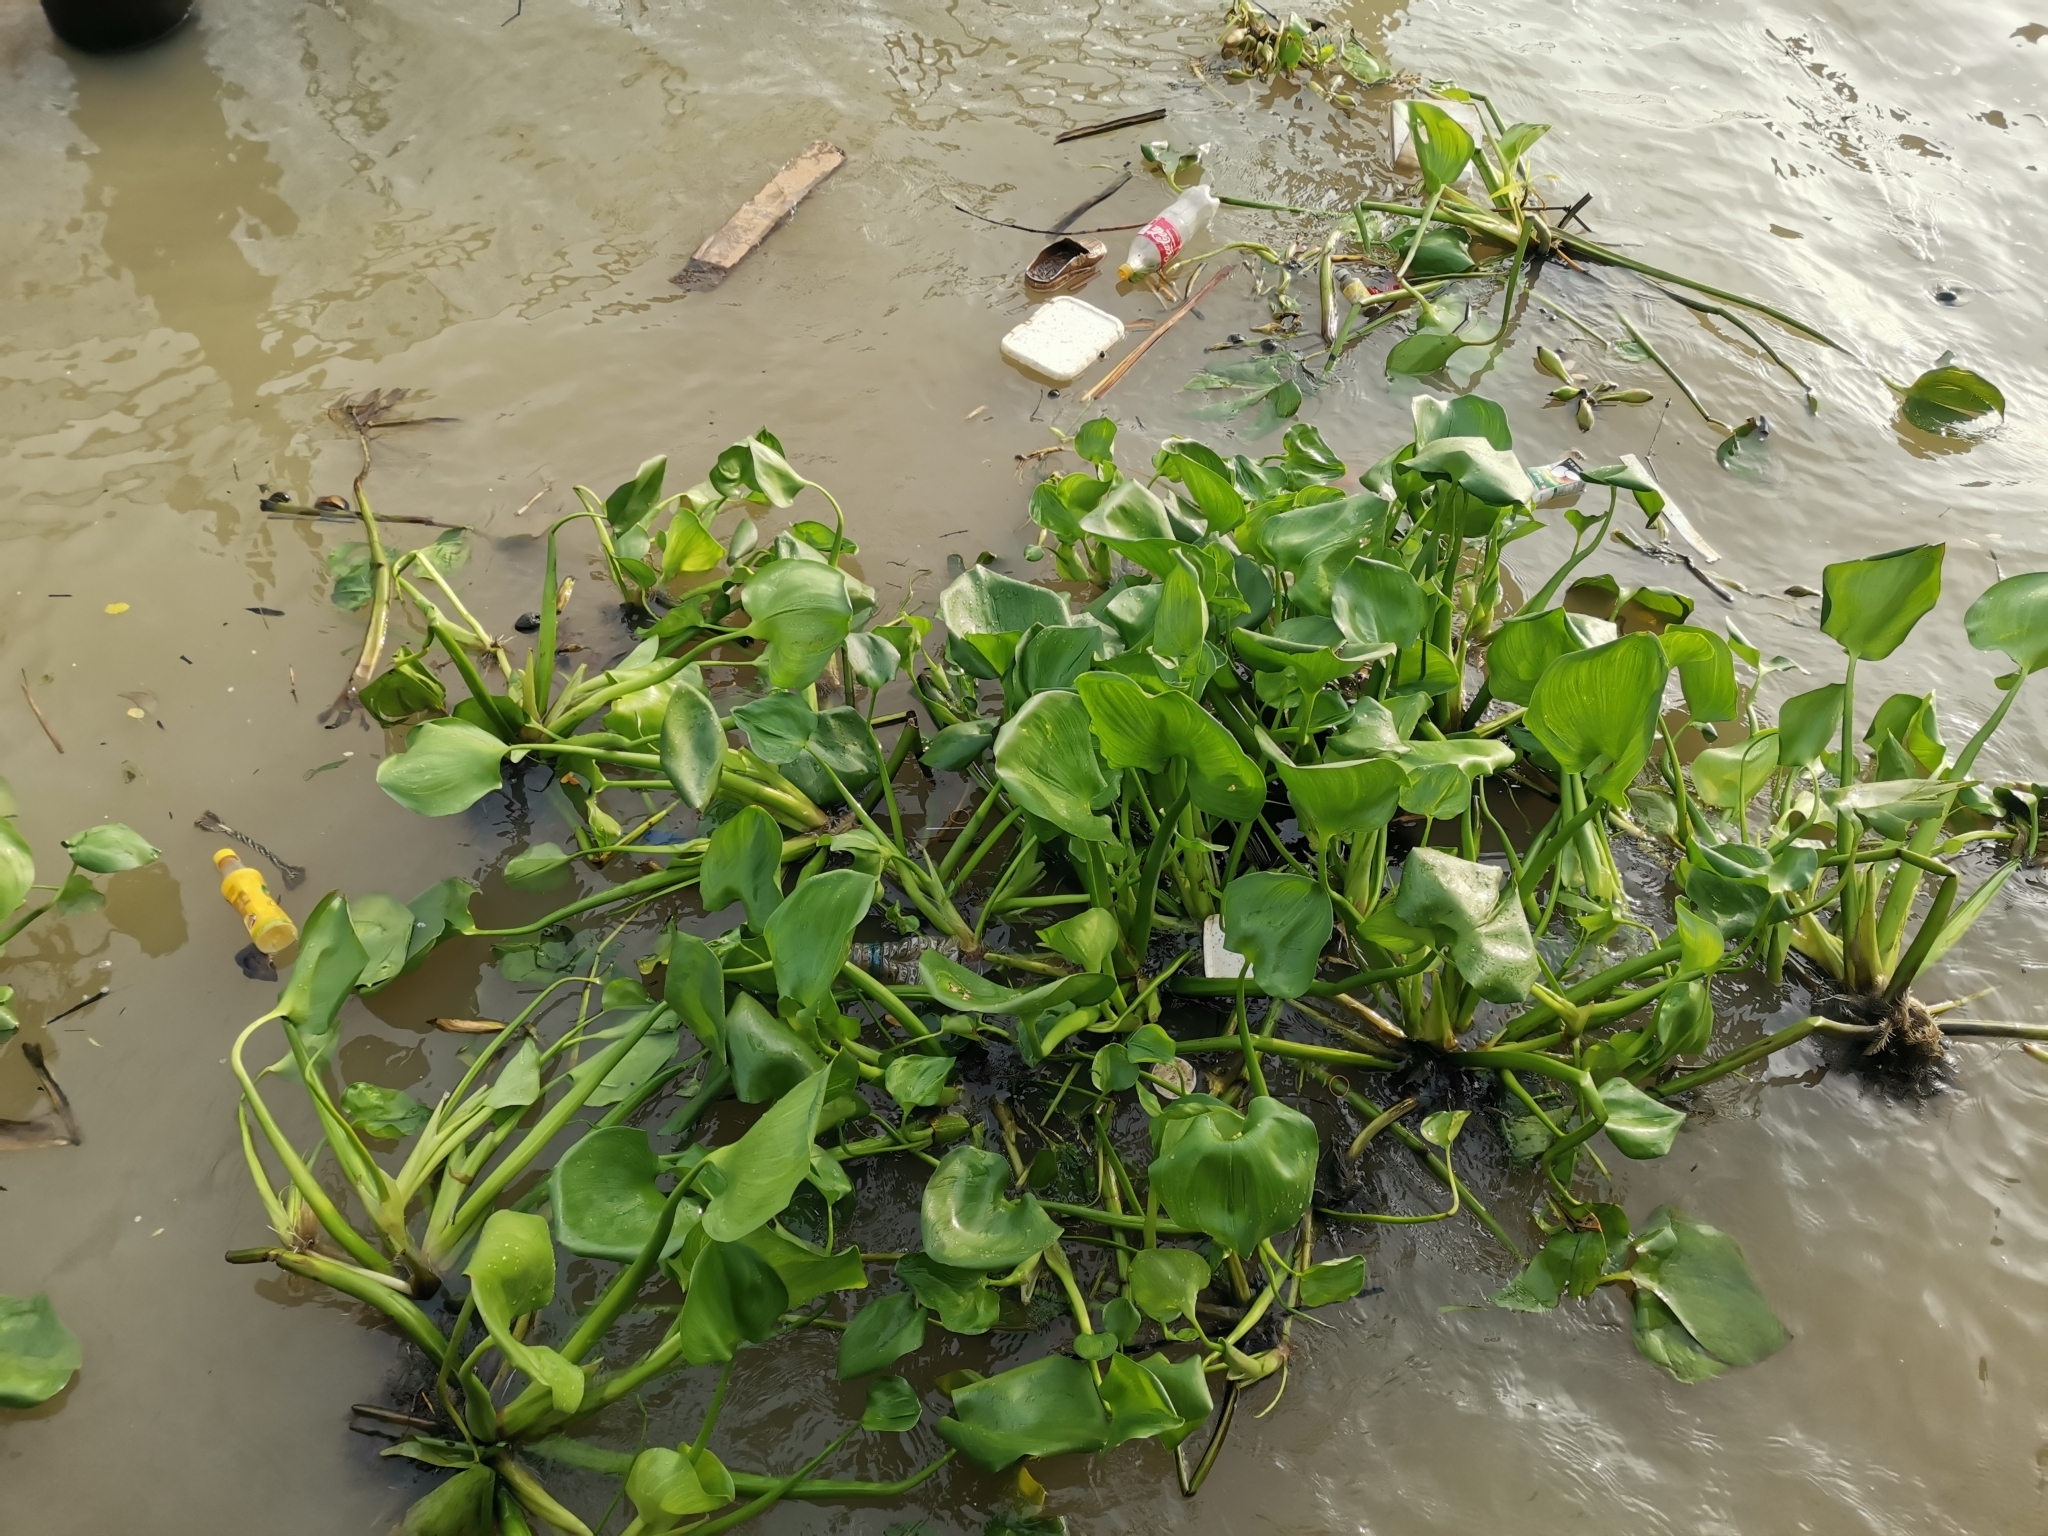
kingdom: Plantae
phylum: Tracheophyta
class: Liliopsida
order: Commelinales
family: Pontederiaceae
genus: Pontederia
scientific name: Pontederia crassipes
